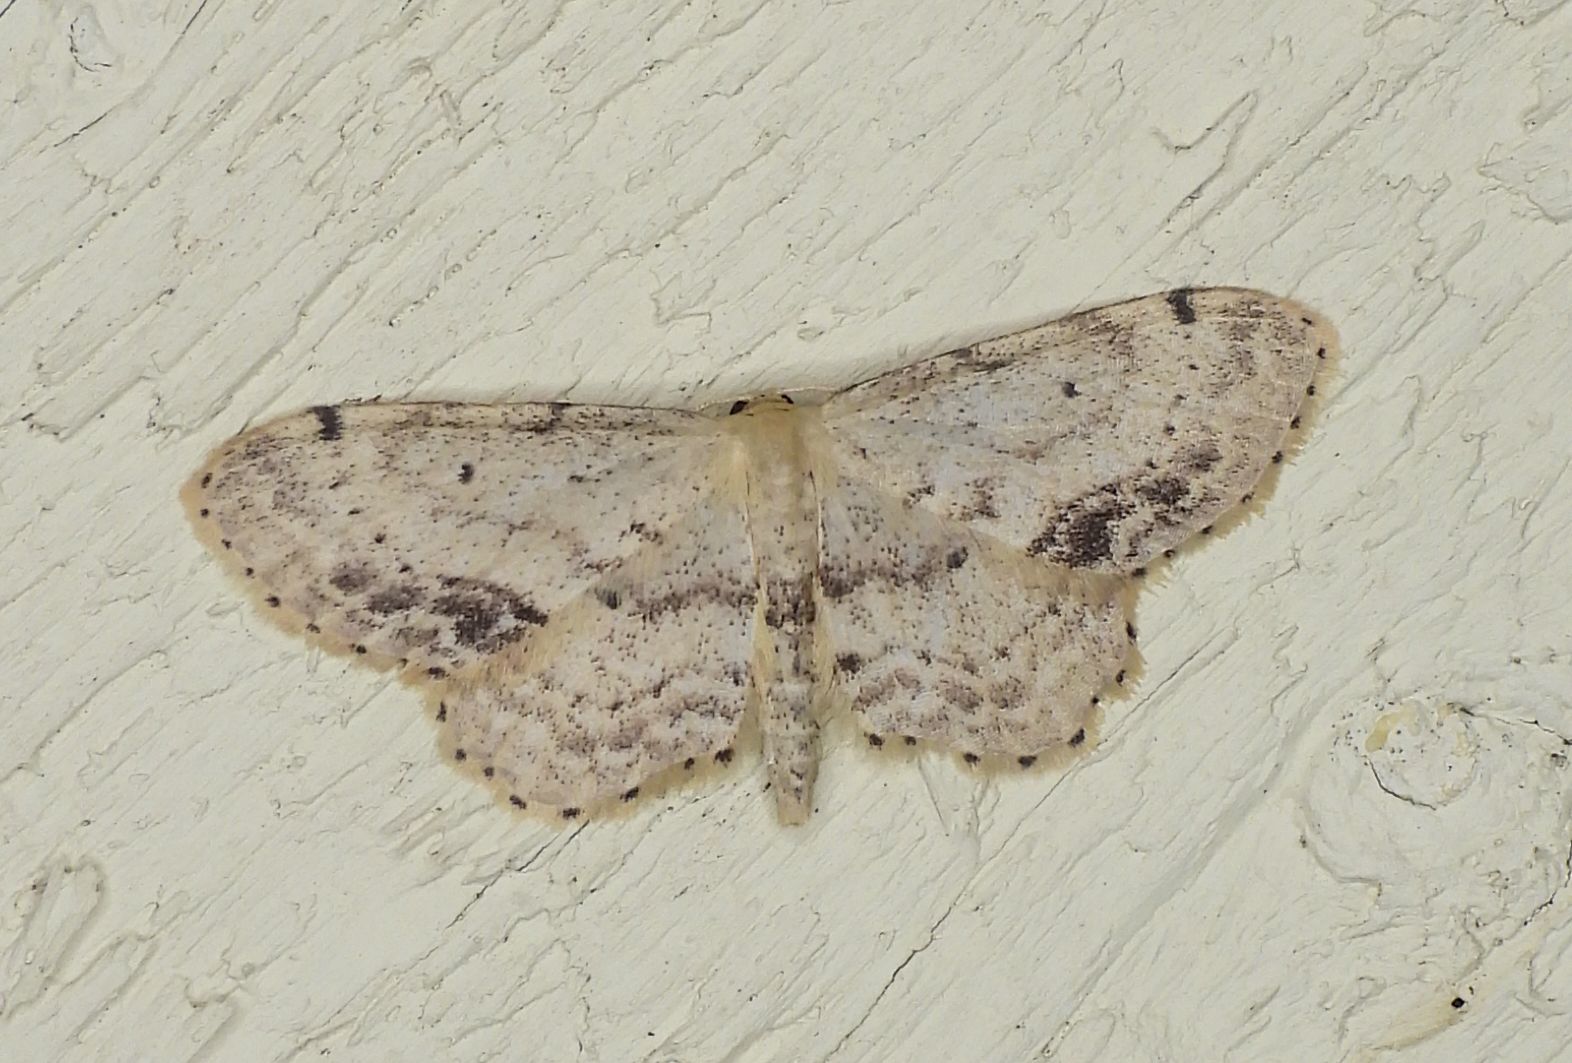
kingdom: Animalia
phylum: Arthropoda
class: Insecta
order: Lepidoptera
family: Geometridae
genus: Idaea
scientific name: Idaea dimidiata
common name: Single-dotted wave
